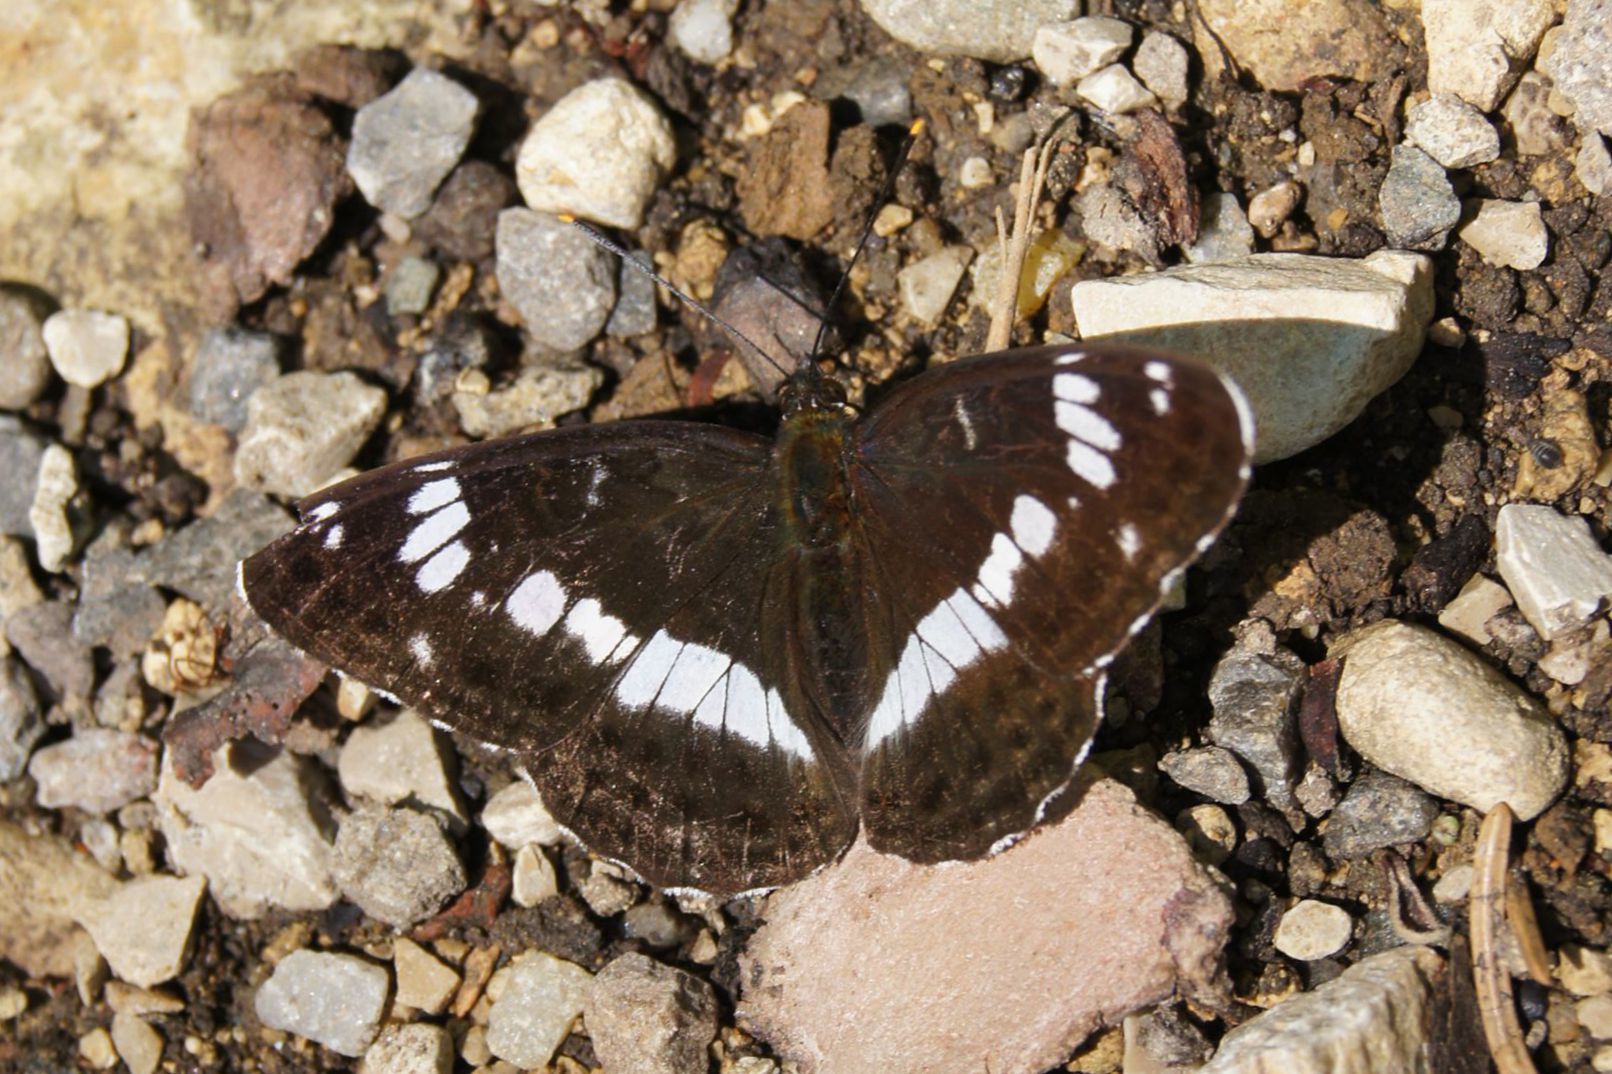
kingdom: Animalia
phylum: Arthropoda
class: Insecta
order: Lepidoptera
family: Nymphalidae
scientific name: Nymphalidae
